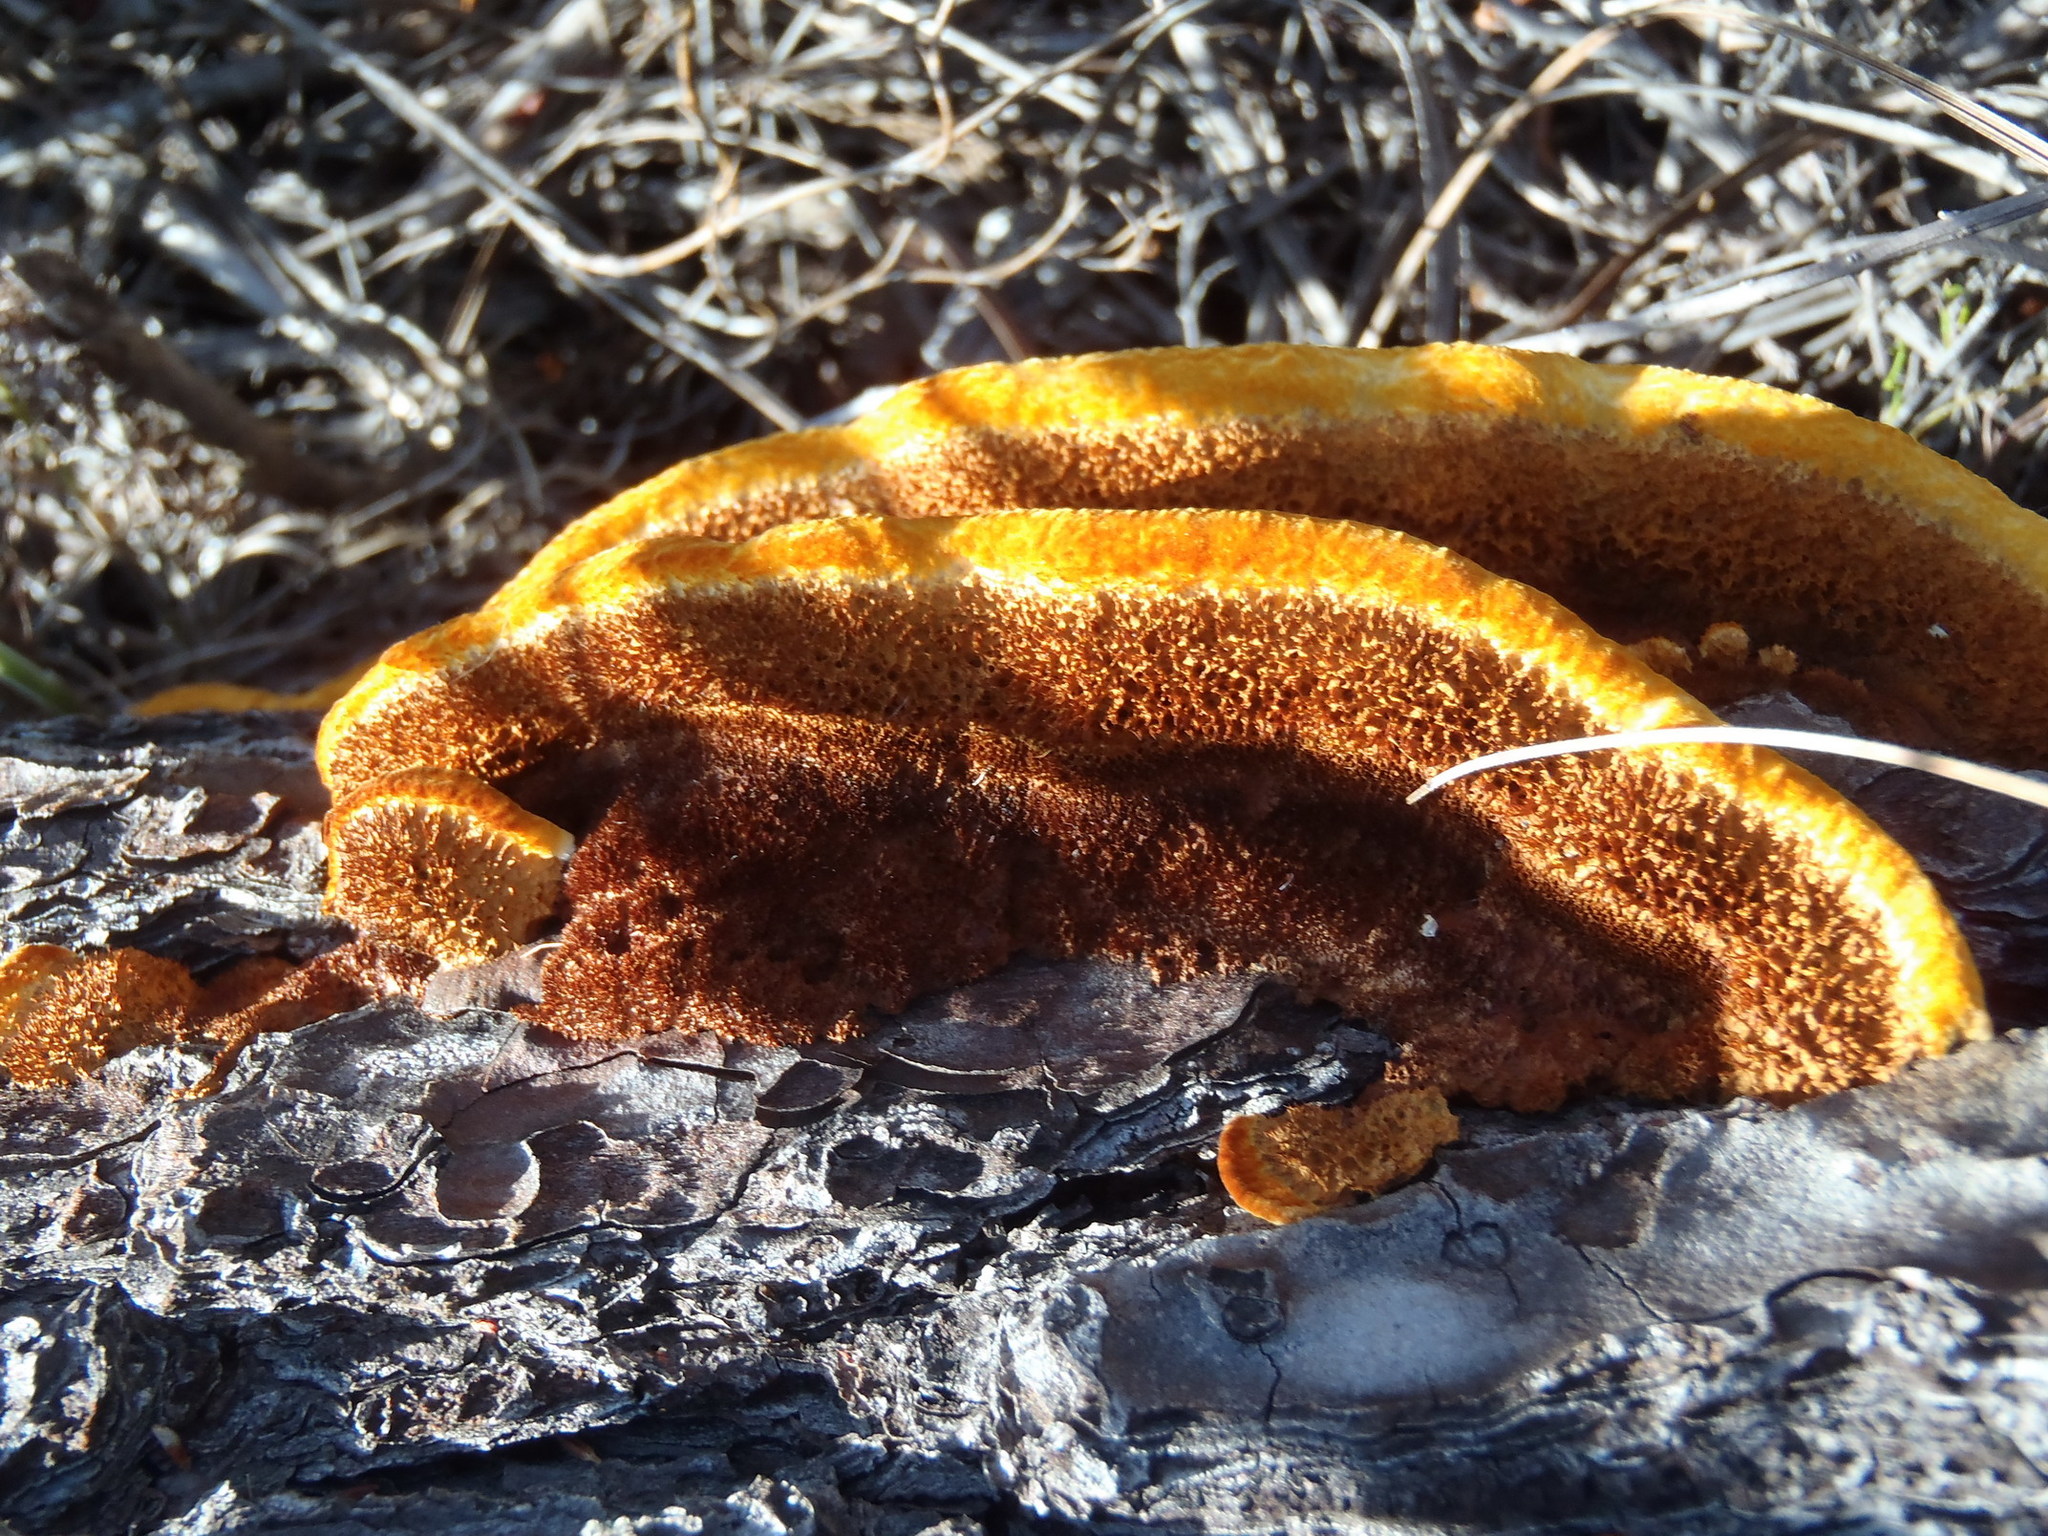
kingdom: Fungi
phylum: Basidiomycota
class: Agaricomycetes
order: Gloeophyllales
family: Gloeophyllaceae
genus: Gloeophyllum
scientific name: Gloeophyllum sepiarium
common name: Conifer mazegill
